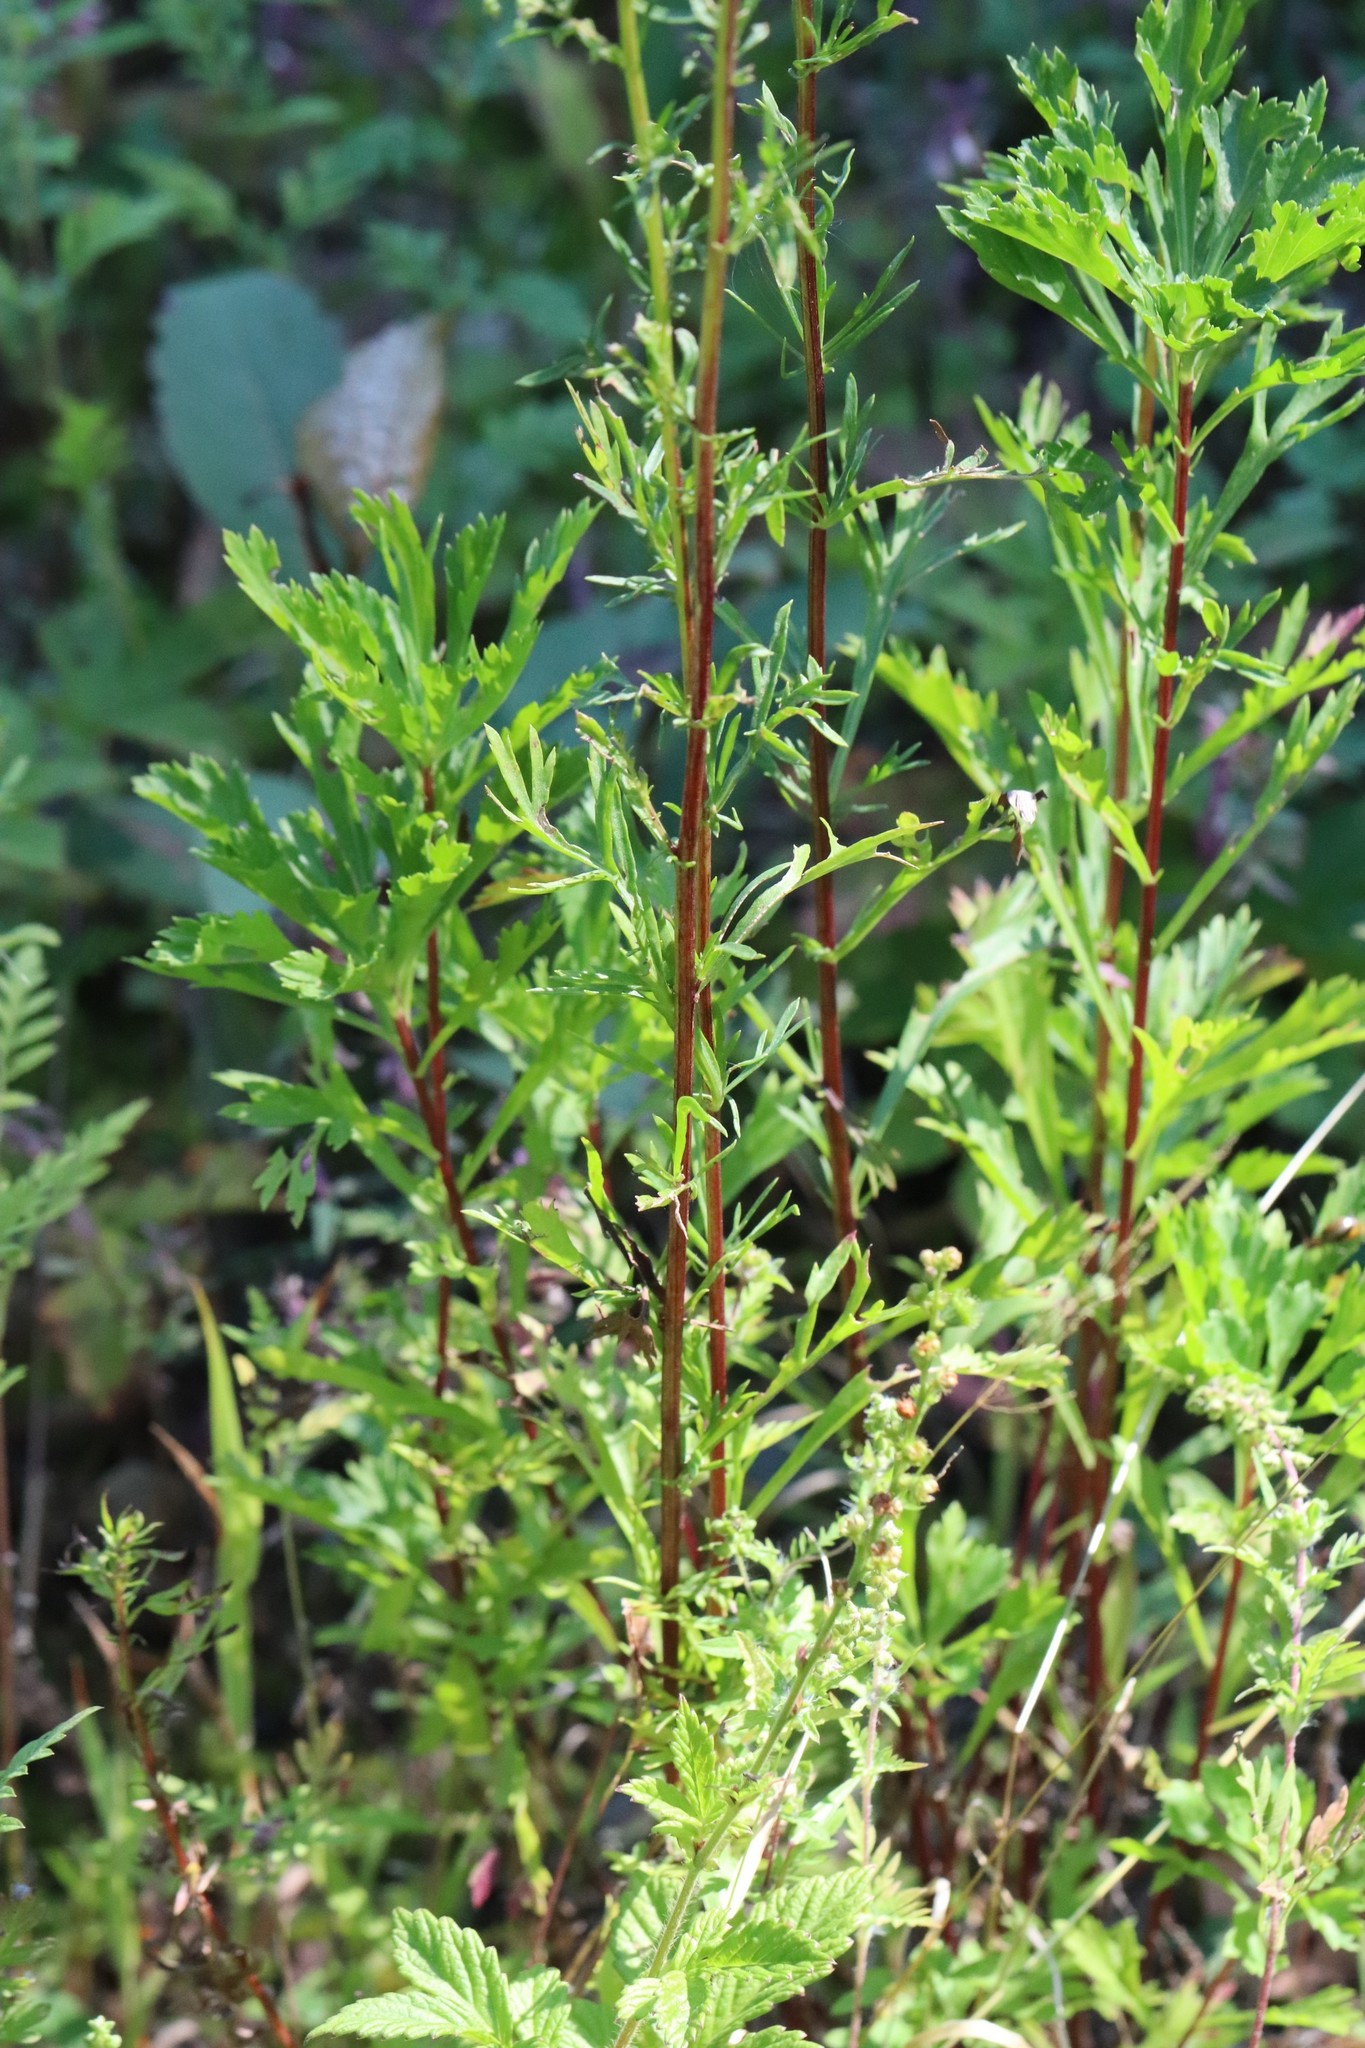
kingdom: Plantae
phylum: Tracheophyta
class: Magnoliopsida
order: Asterales
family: Asteraceae
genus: Artemisia
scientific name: Artemisia manshurica
